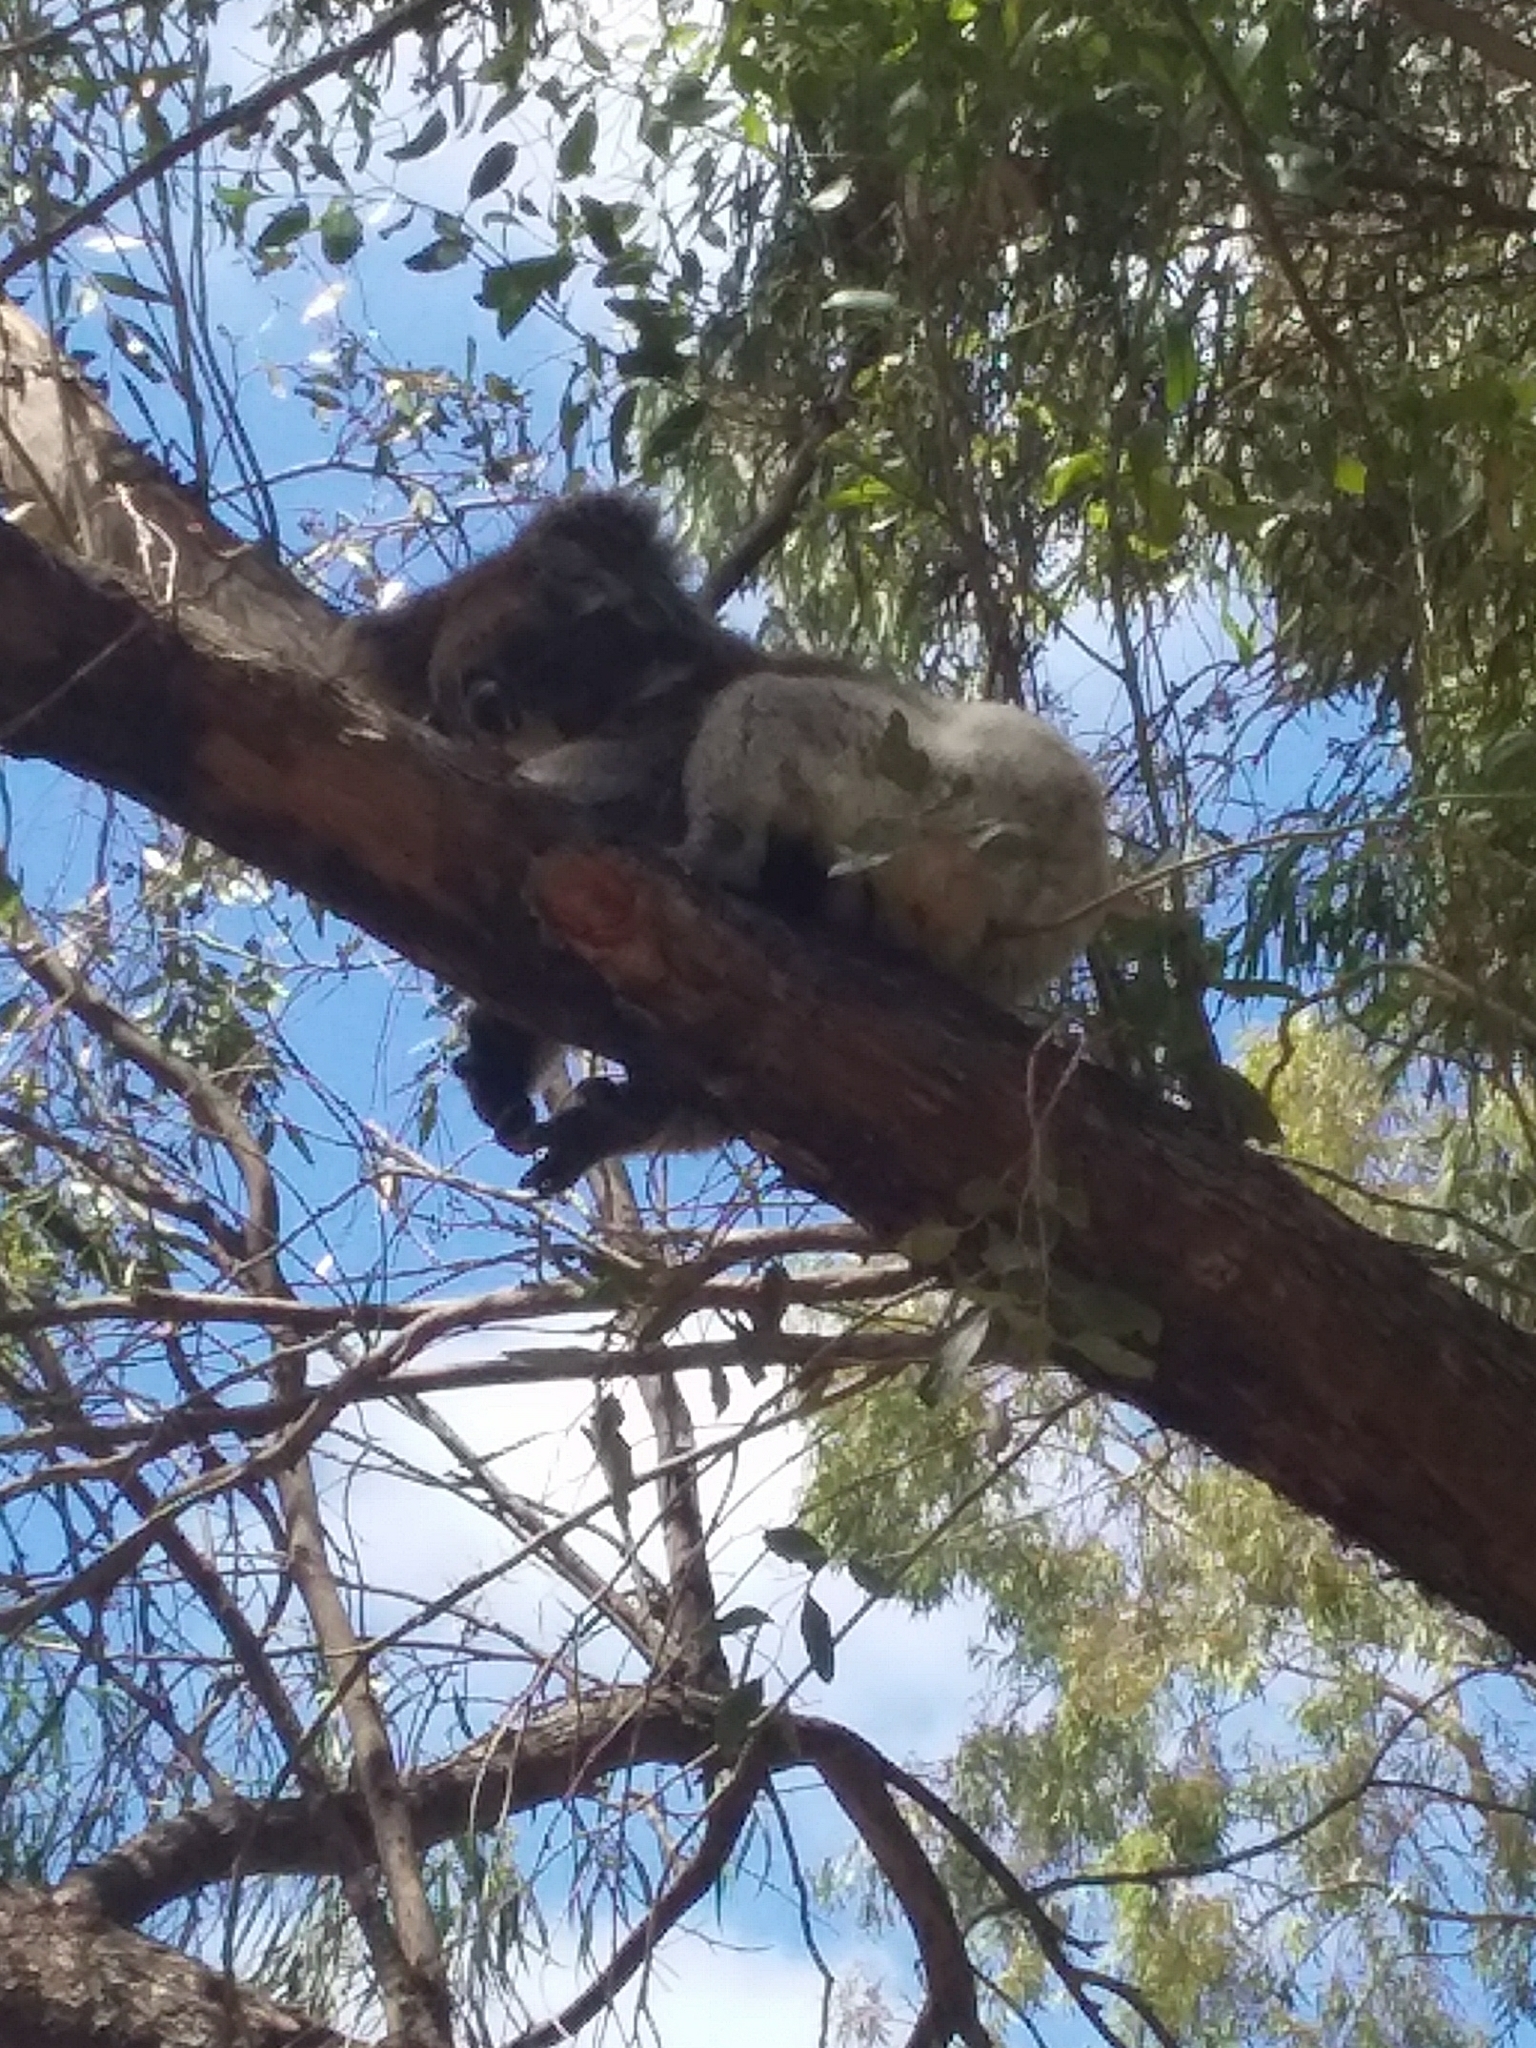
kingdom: Animalia
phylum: Chordata
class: Mammalia
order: Diprotodontia
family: Phascolarctidae
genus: Phascolarctos
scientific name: Phascolarctos cinereus
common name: Koala
